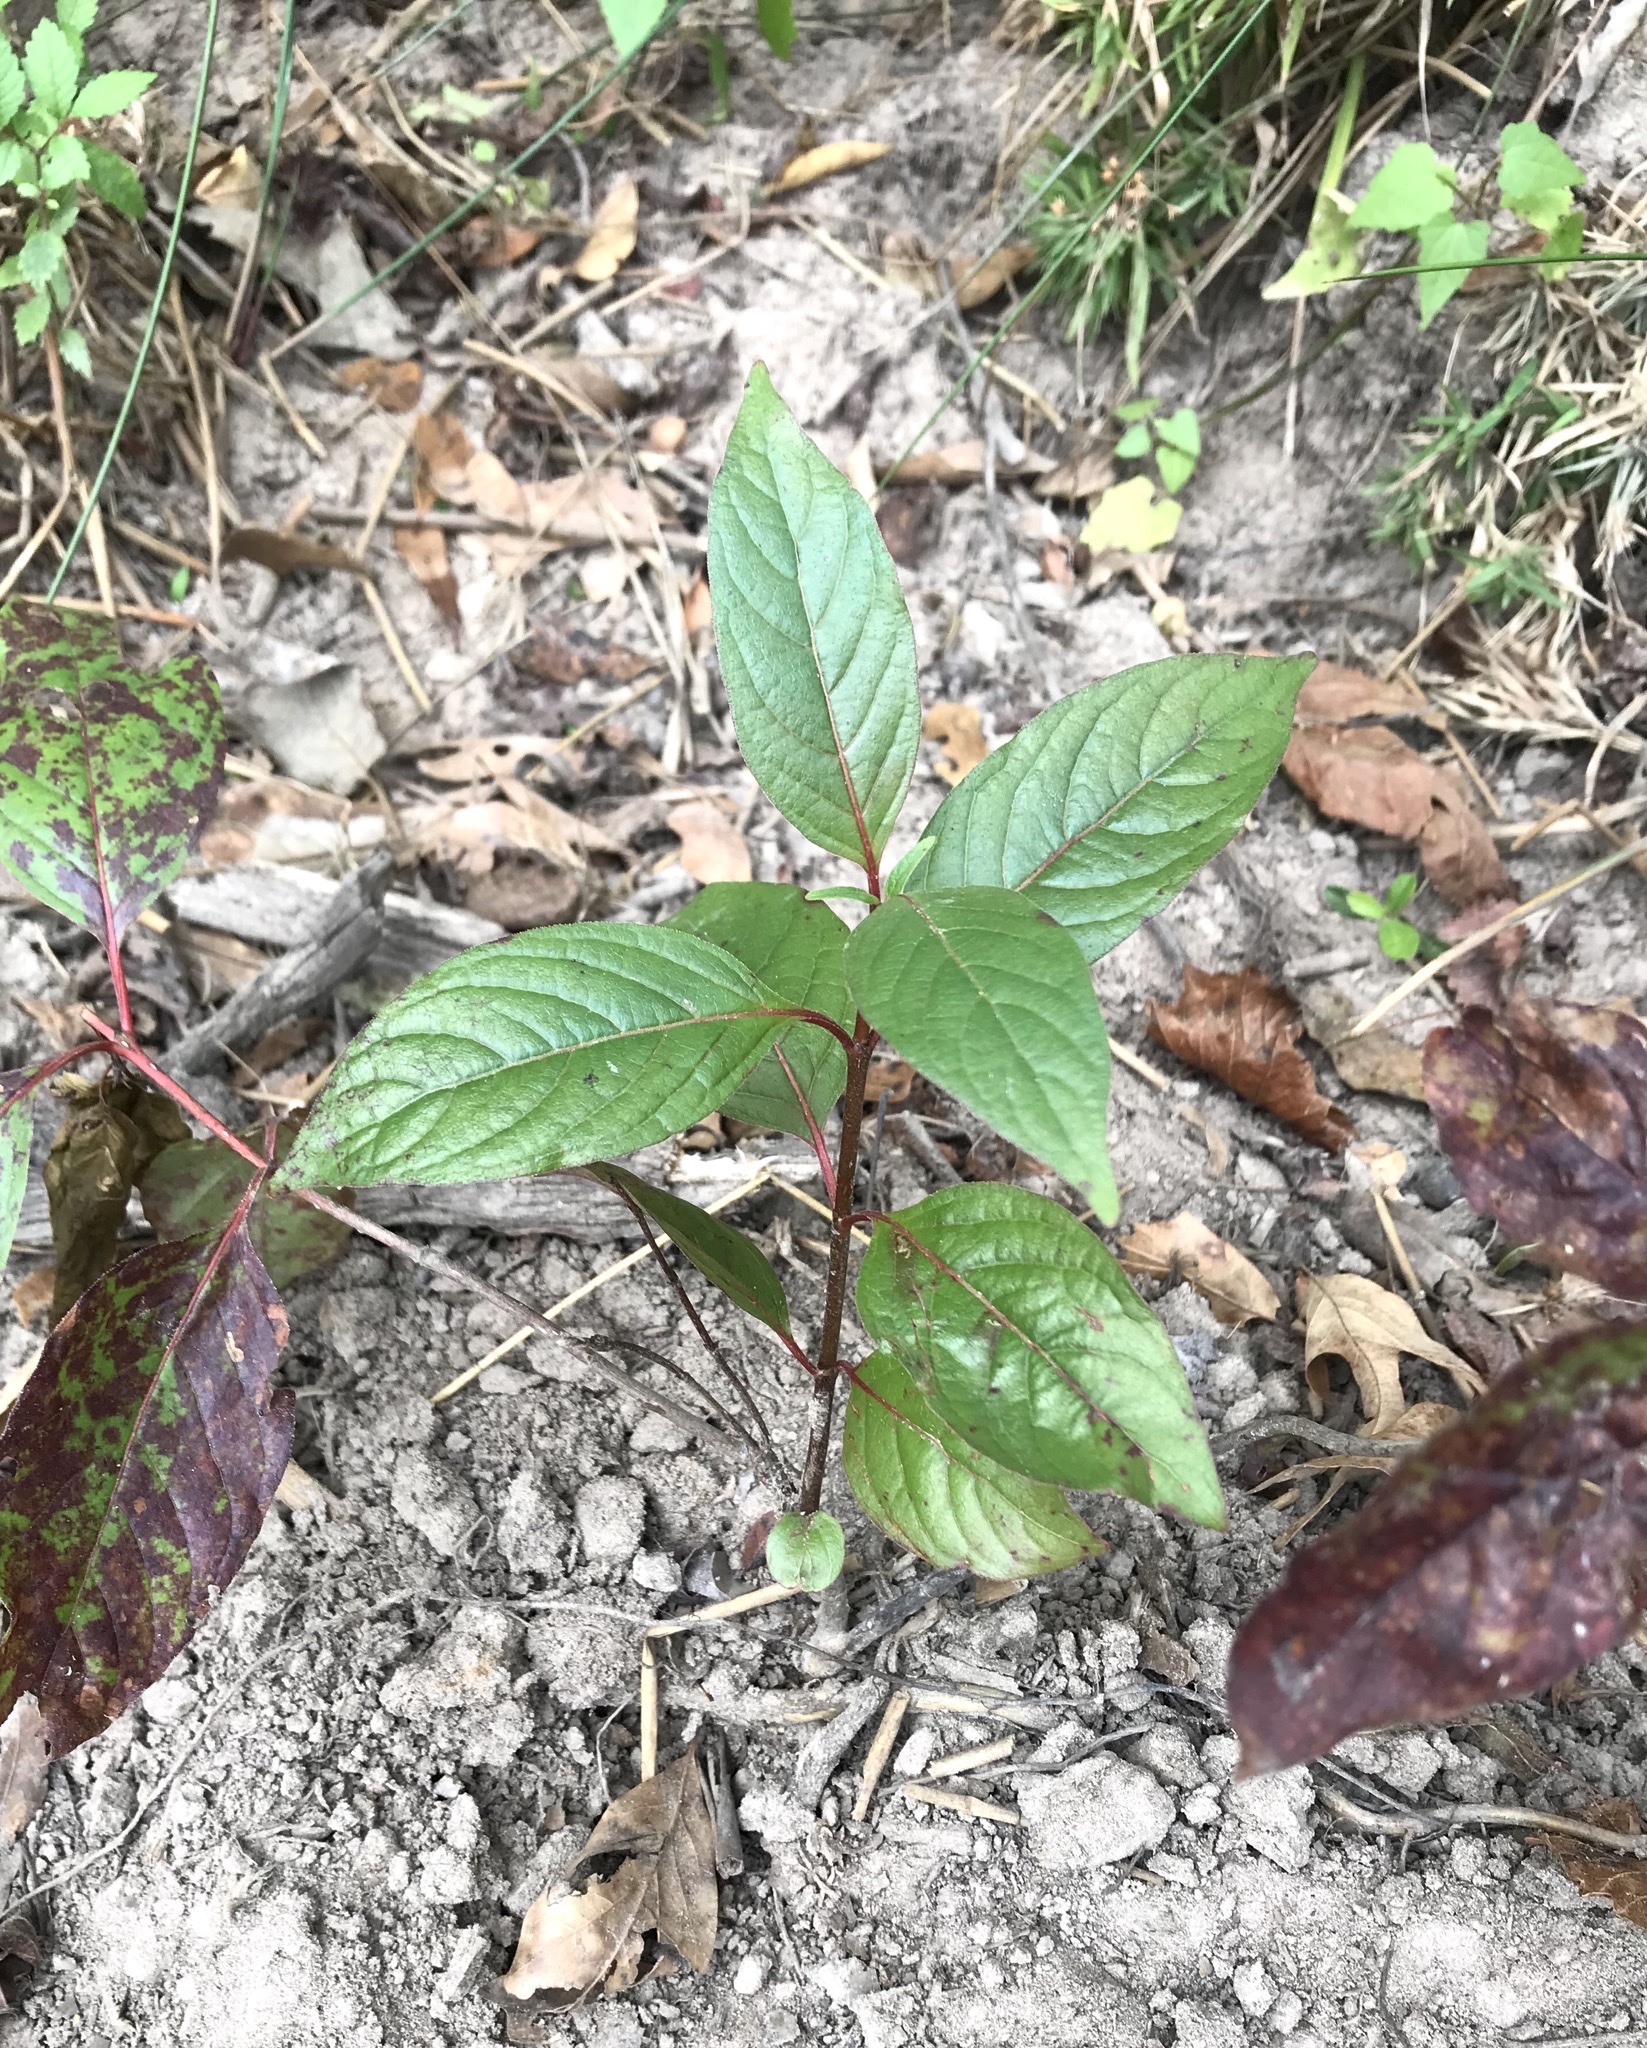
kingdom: Plantae
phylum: Tracheophyta
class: Magnoliopsida
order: Gentianales
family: Rubiaceae
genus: Cephalanthus
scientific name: Cephalanthus occidentalis
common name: Button-willow
